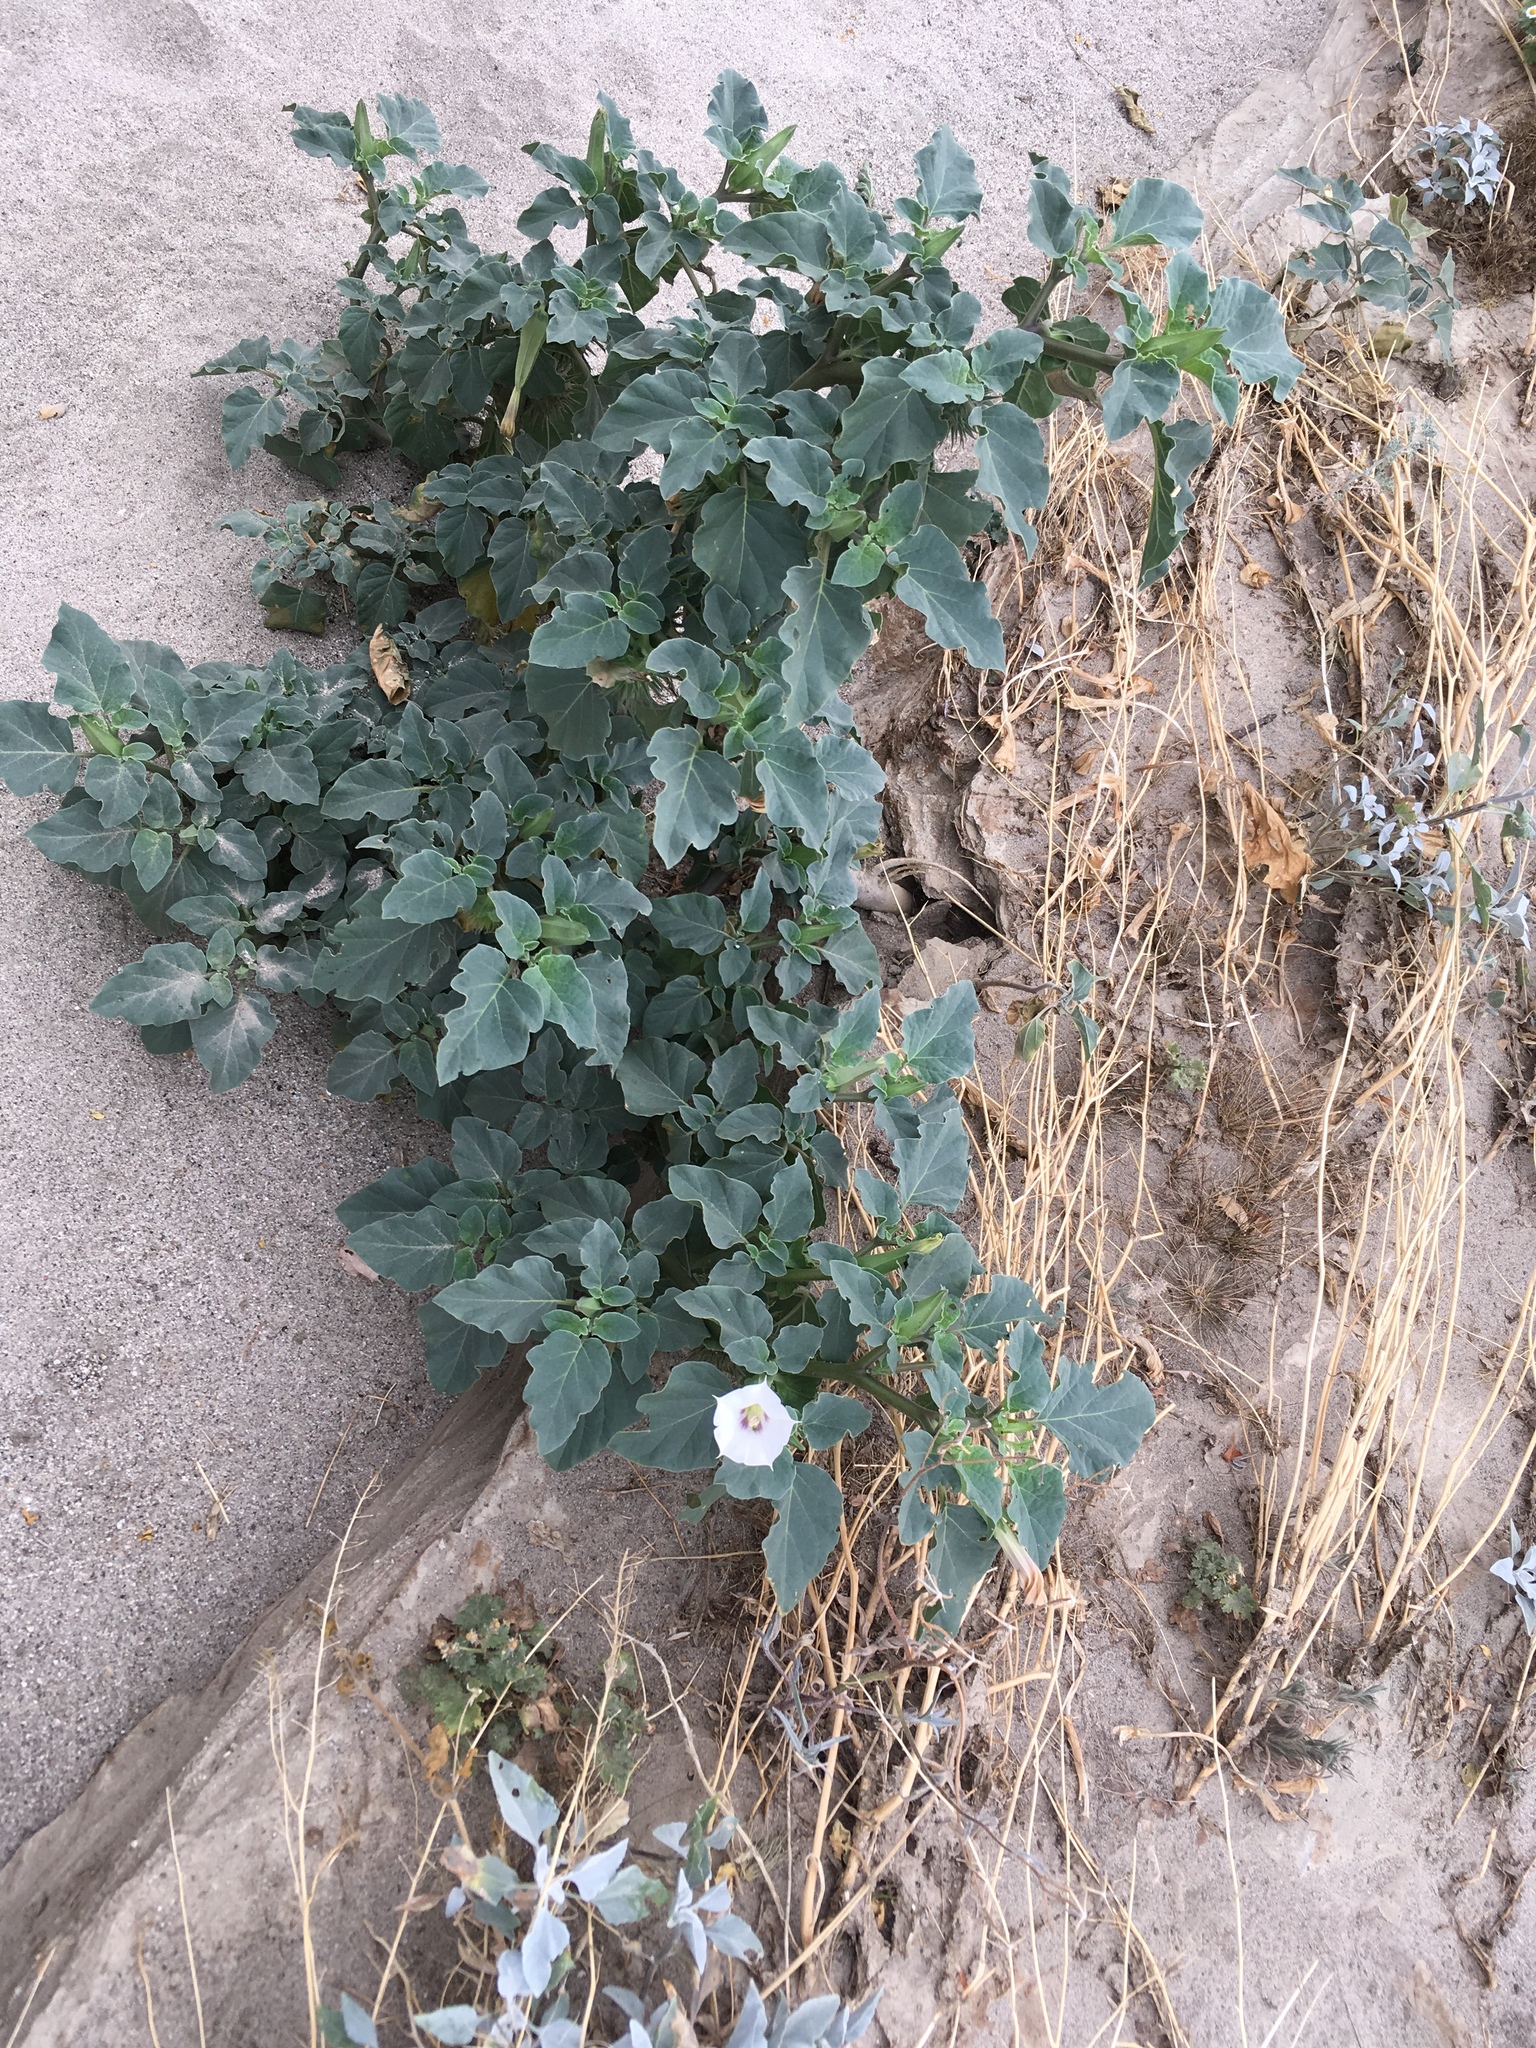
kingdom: Plantae
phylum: Tracheophyta
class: Magnoliopsida
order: Solanales
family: Solanaceae
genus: Datura
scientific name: Datura discolor
